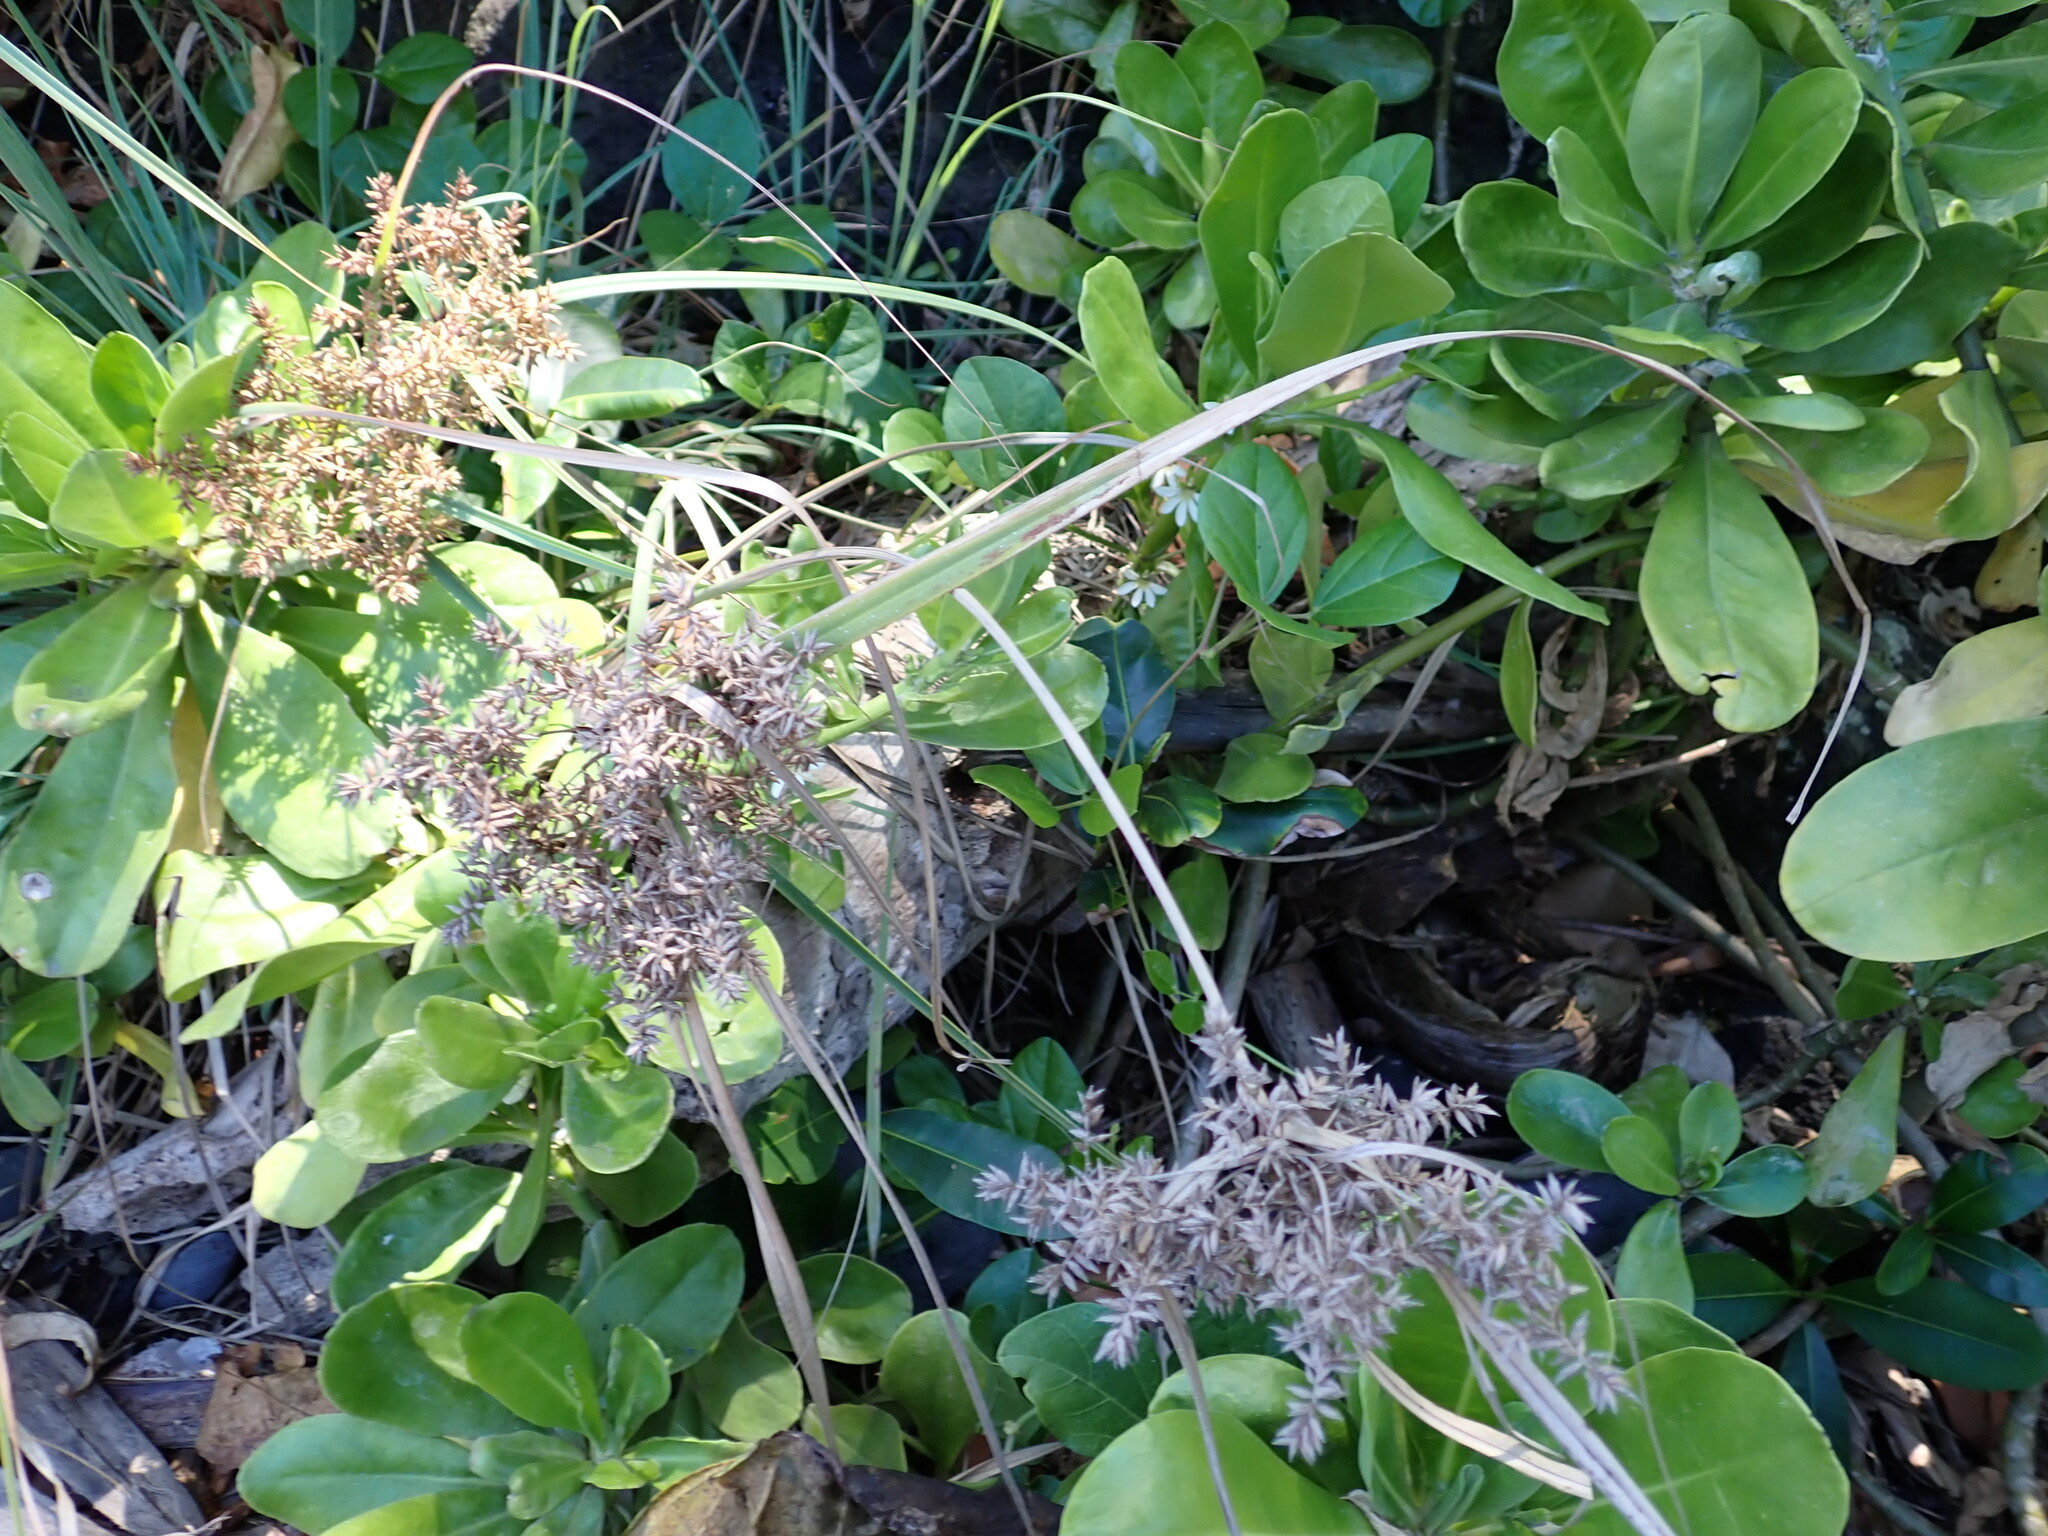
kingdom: Plantae
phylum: Tracheophyta
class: Liliopsida
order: Poales
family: Cyperaceae
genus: Cyperus
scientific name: Cyperus javanicus
